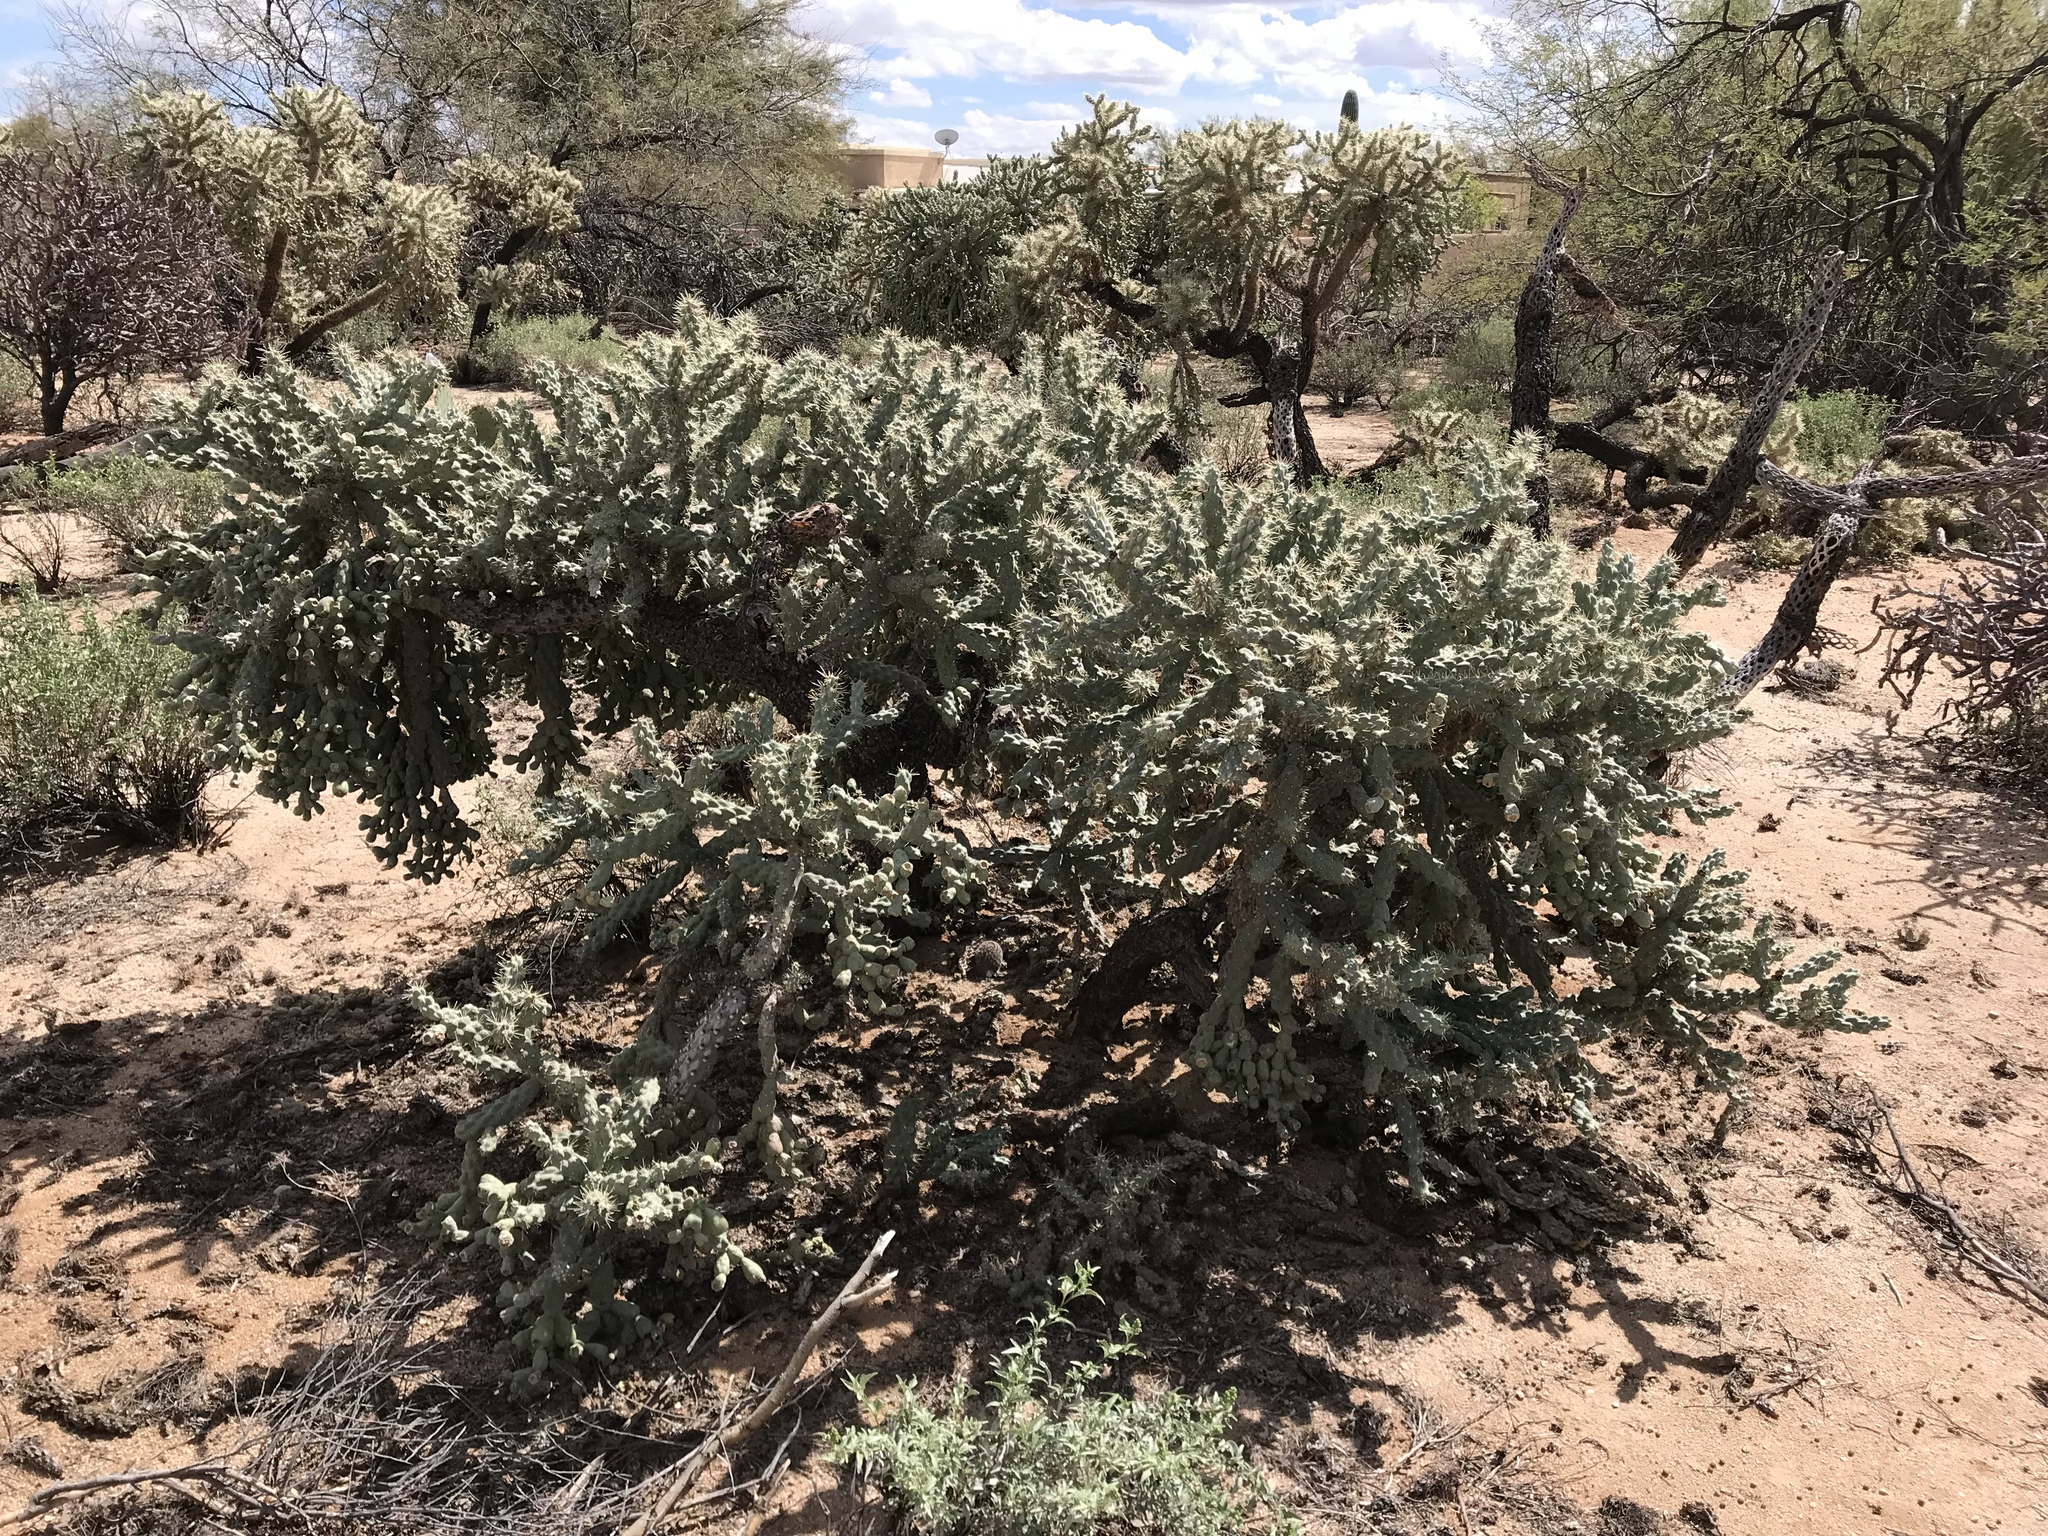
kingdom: Plantae
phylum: Tracheophyta
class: Magnoliopsida
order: Caryophyllales
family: Cactaceae
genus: Cylindropuntia
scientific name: Cylindropuntia fulgida
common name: Jumping cholla
